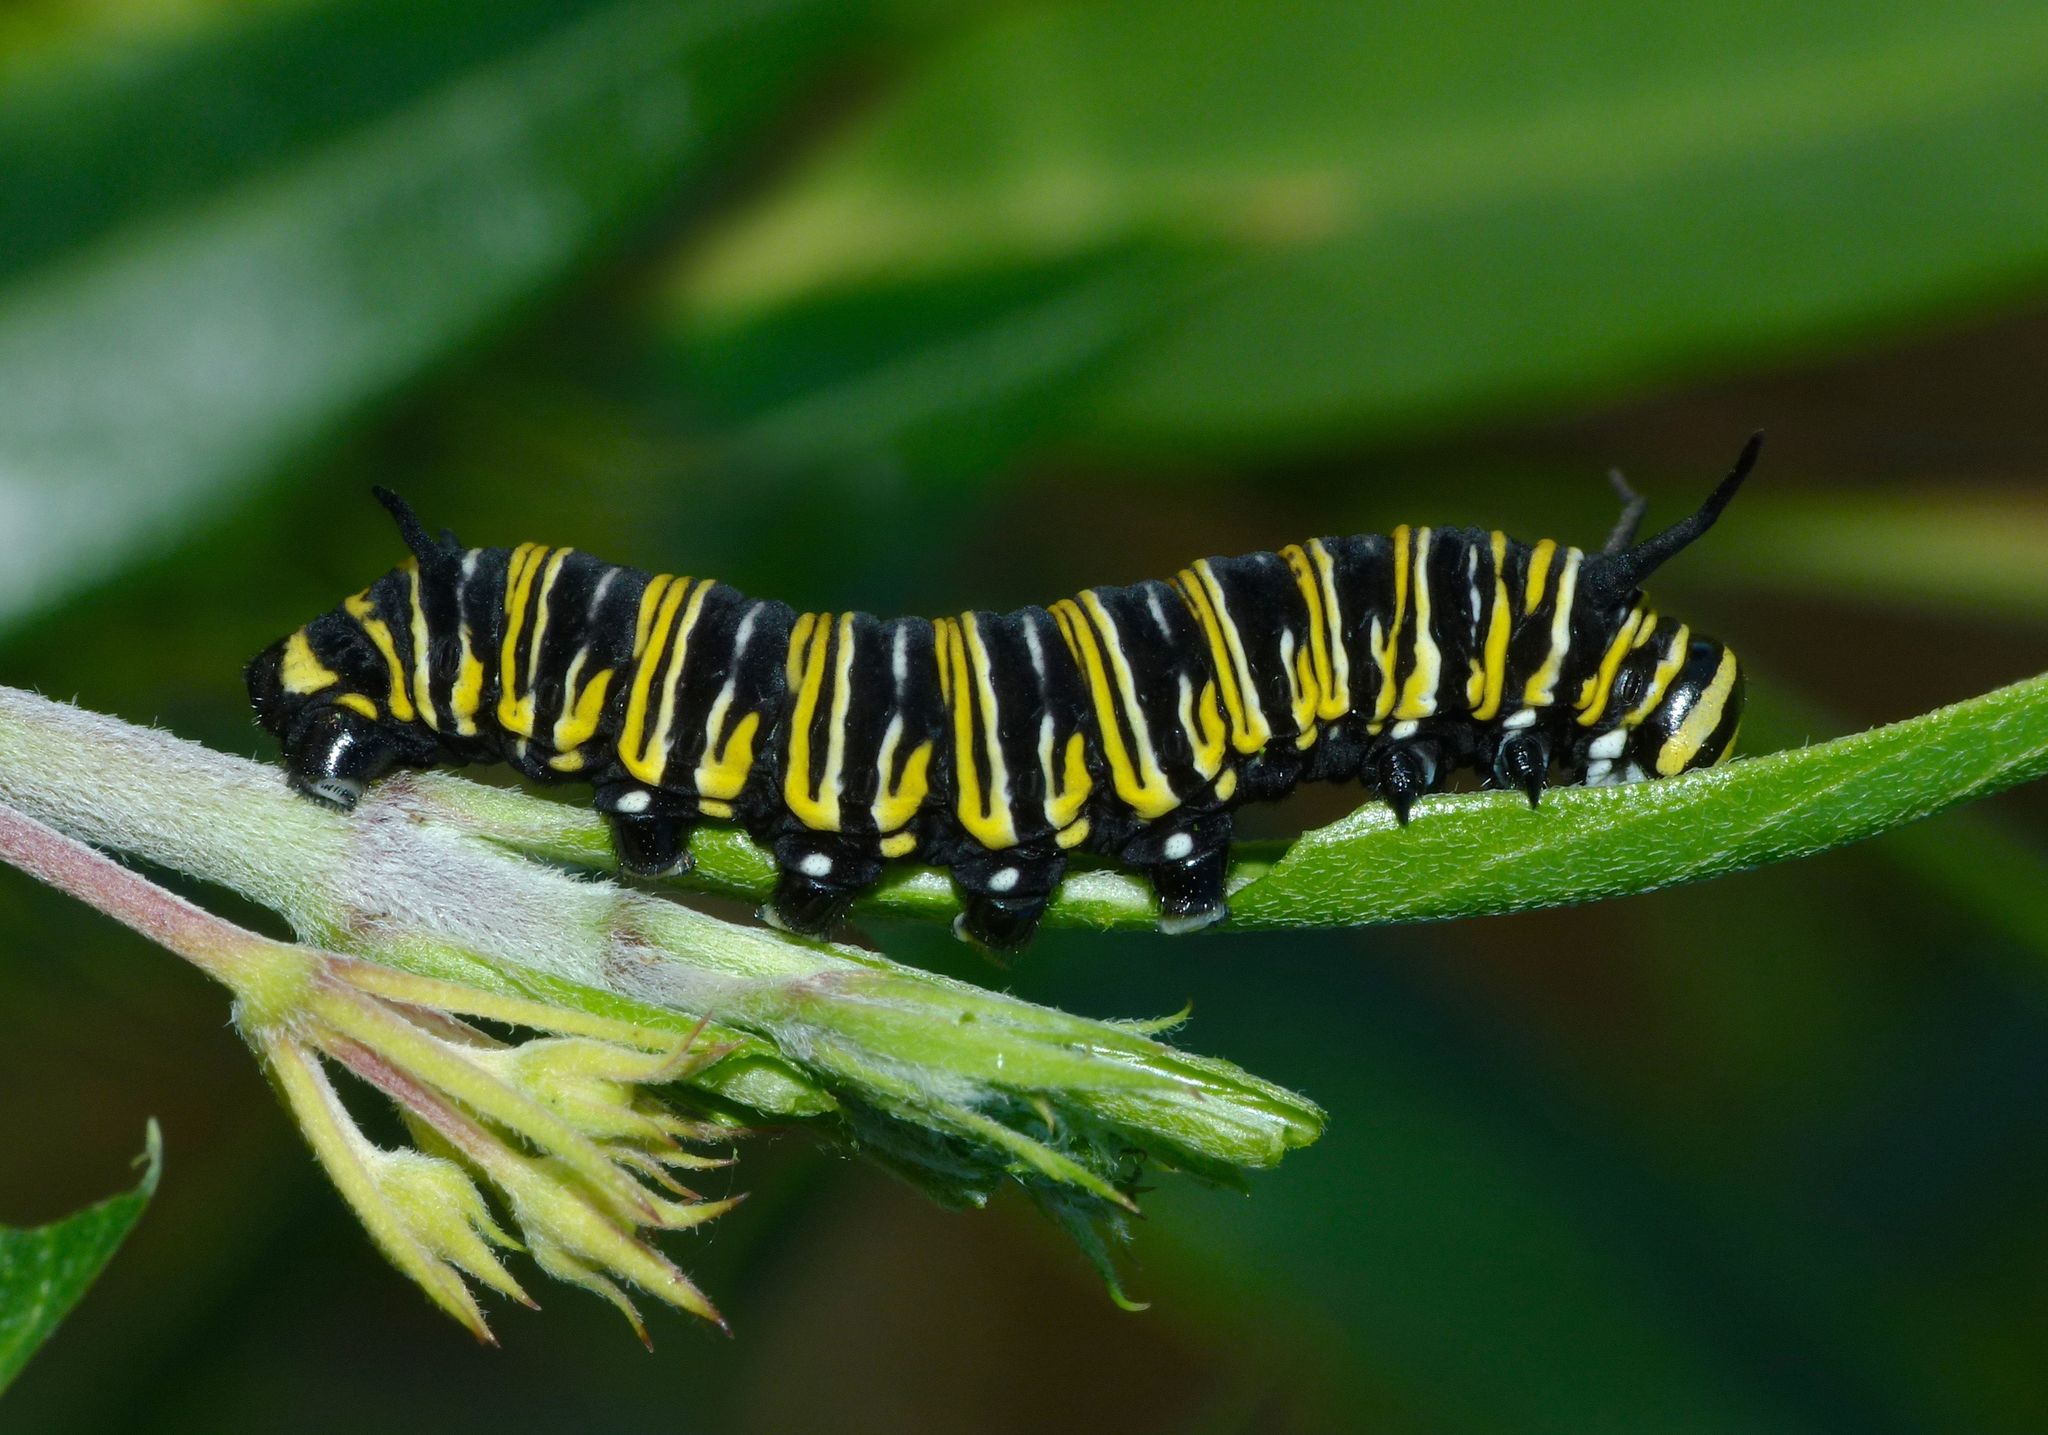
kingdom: Animalia
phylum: Arthropoda
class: Insecta
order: Lepidoptera
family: Nymphalidae
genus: Danaus
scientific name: Danaus plexippus
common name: Monarch
